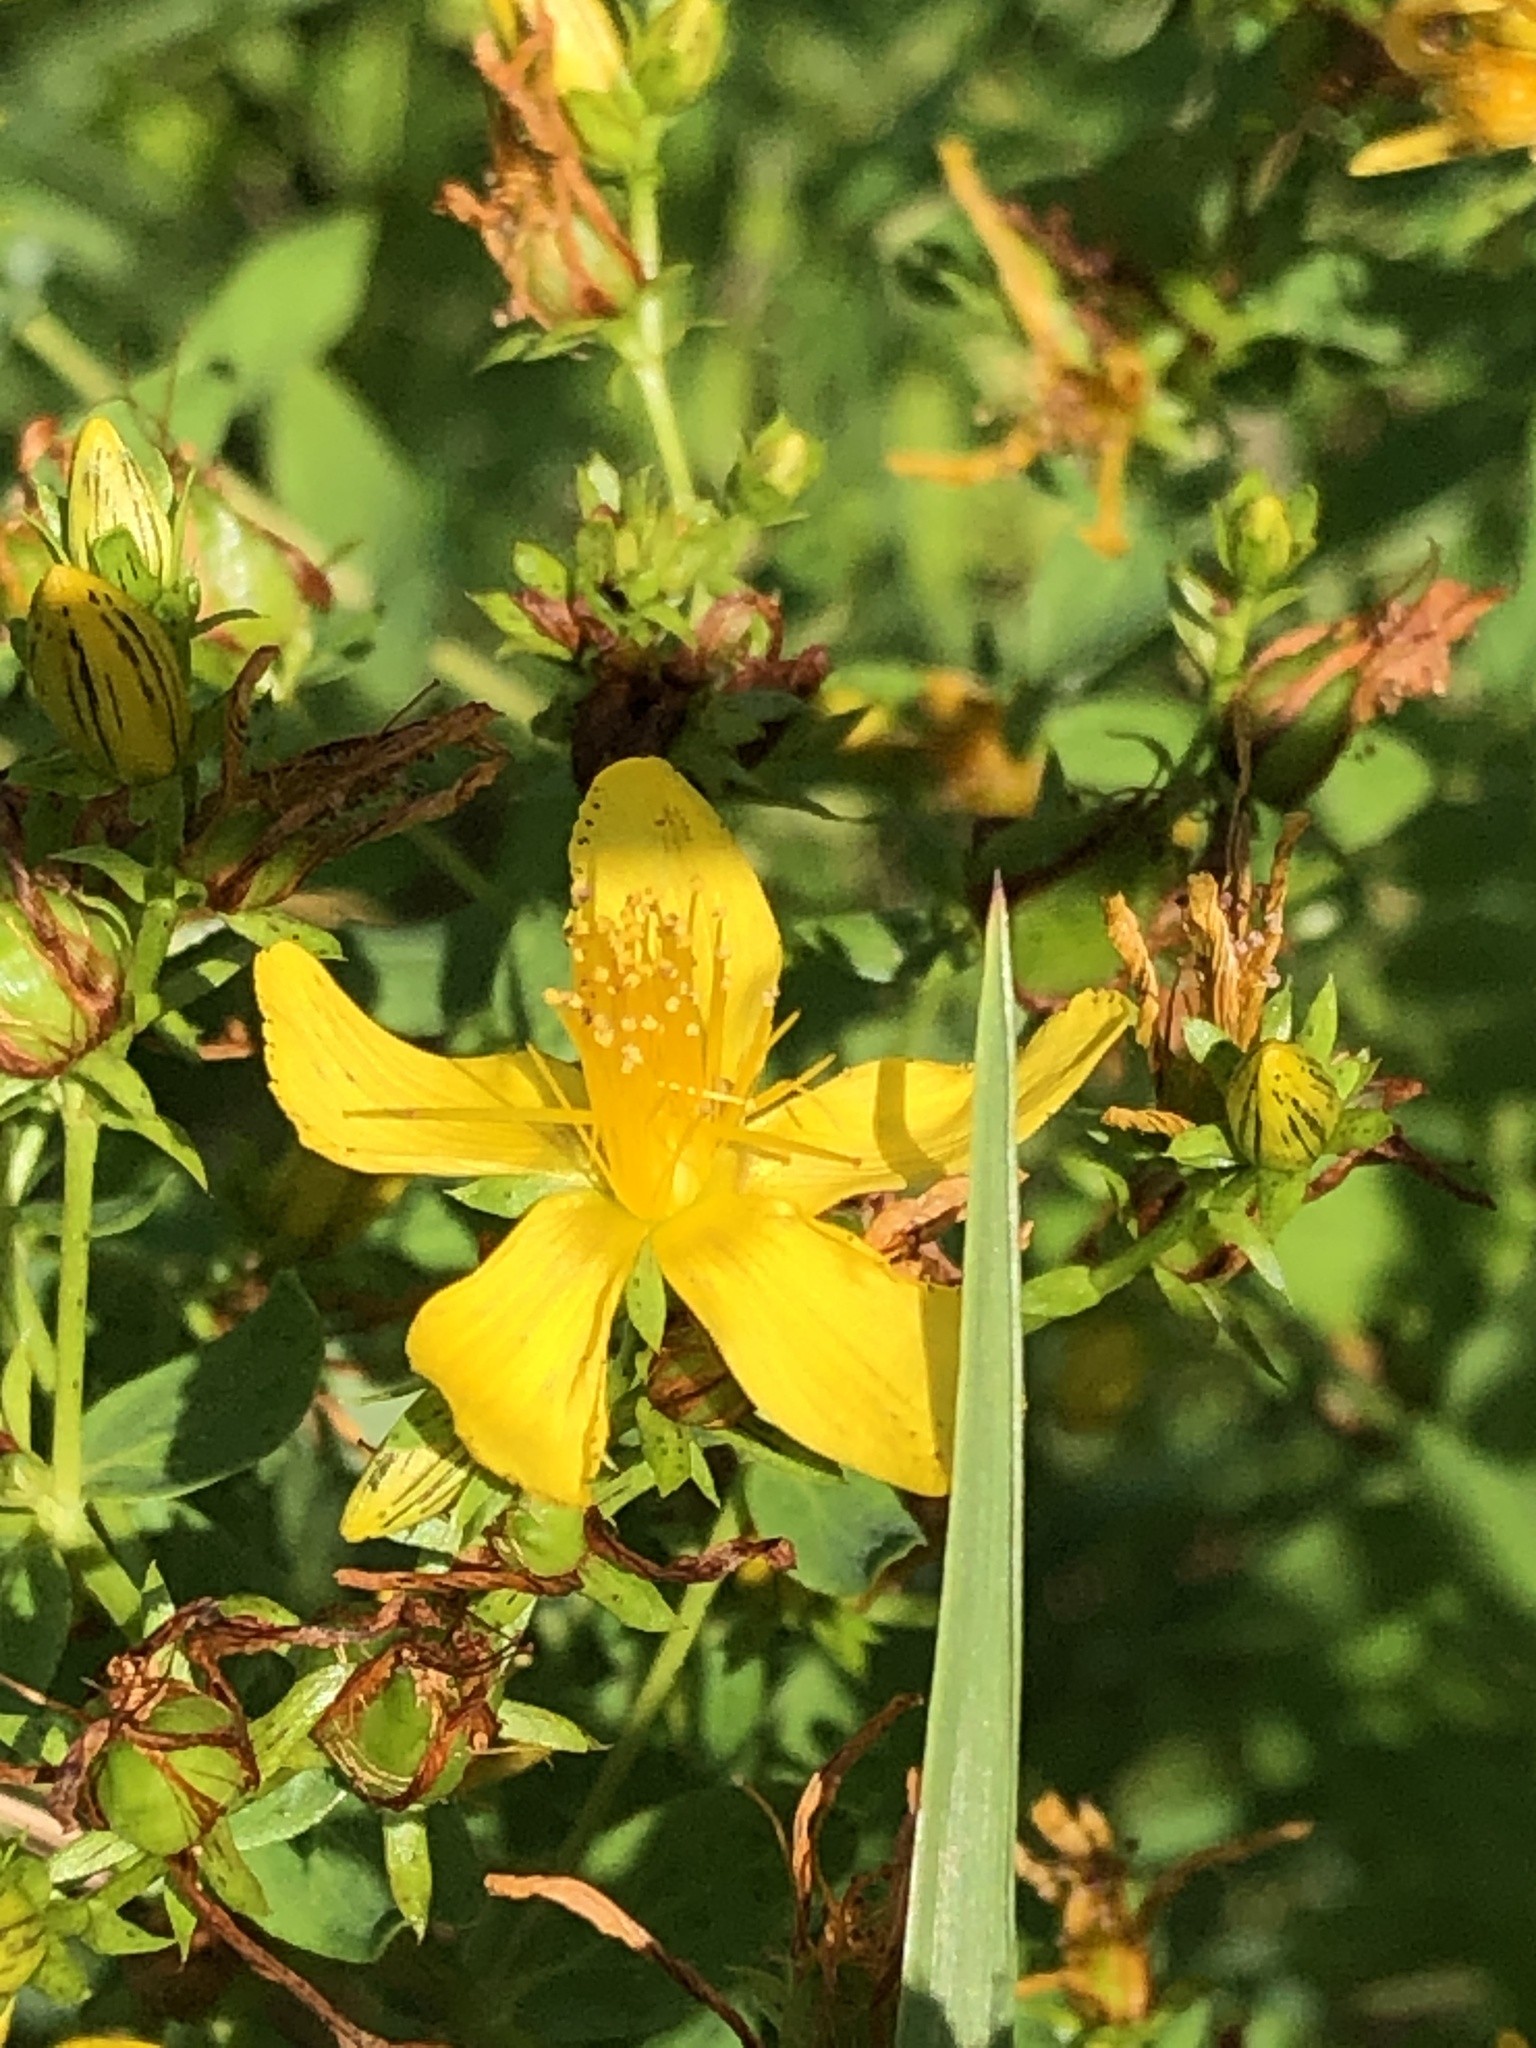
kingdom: Plantae
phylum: Tracheophyta
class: Magnoliopsida
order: Malpighiales
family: Hypericaceae
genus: Hypericum
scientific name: Hypericum perforatum
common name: Common st. johnswort
